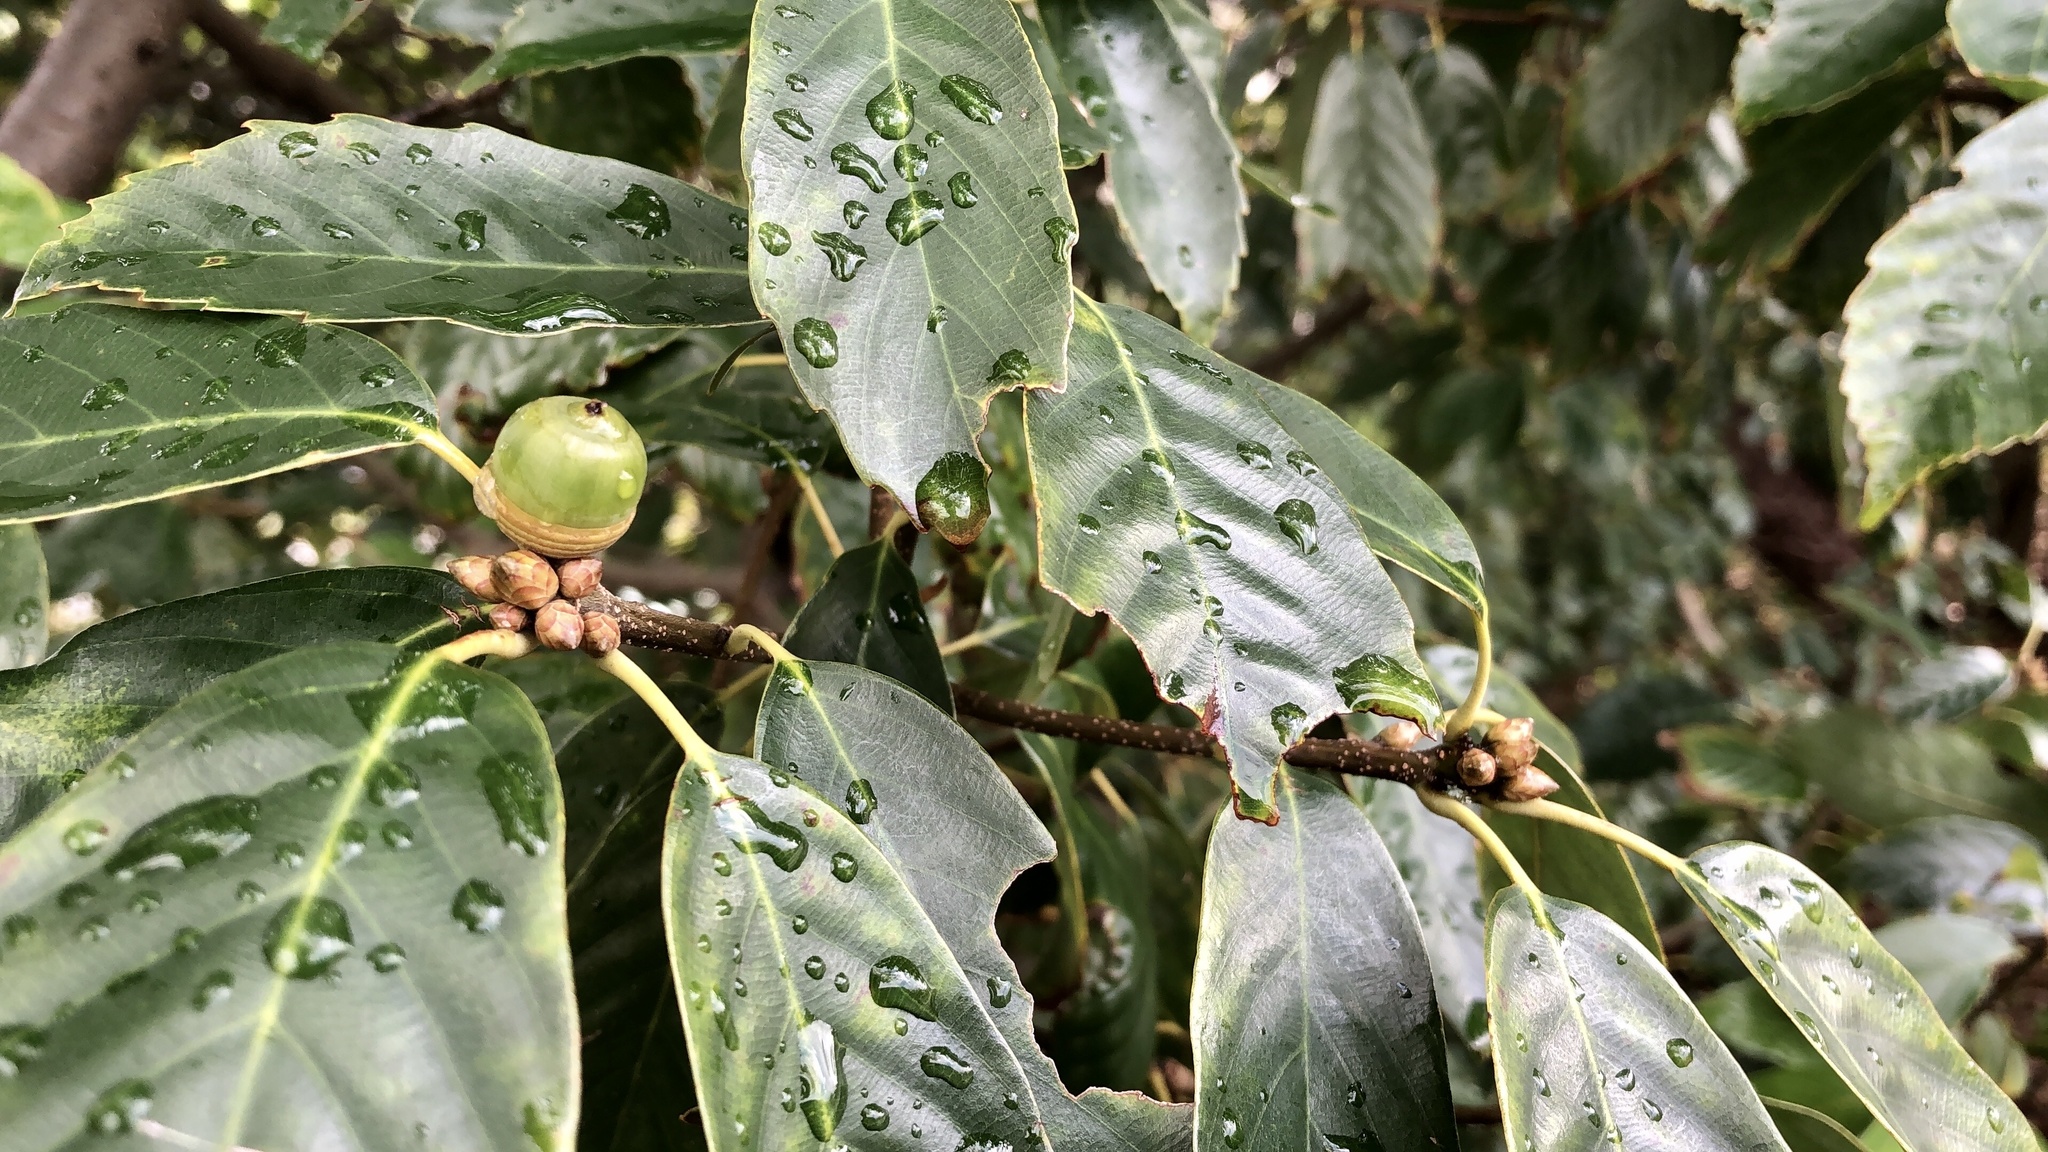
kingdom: Plantae
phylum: Tracheophyta
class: Magnoliopsida
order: Fagales
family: Fagaceae
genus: Quercus
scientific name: Quercus glauca
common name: Ring-cup oak
